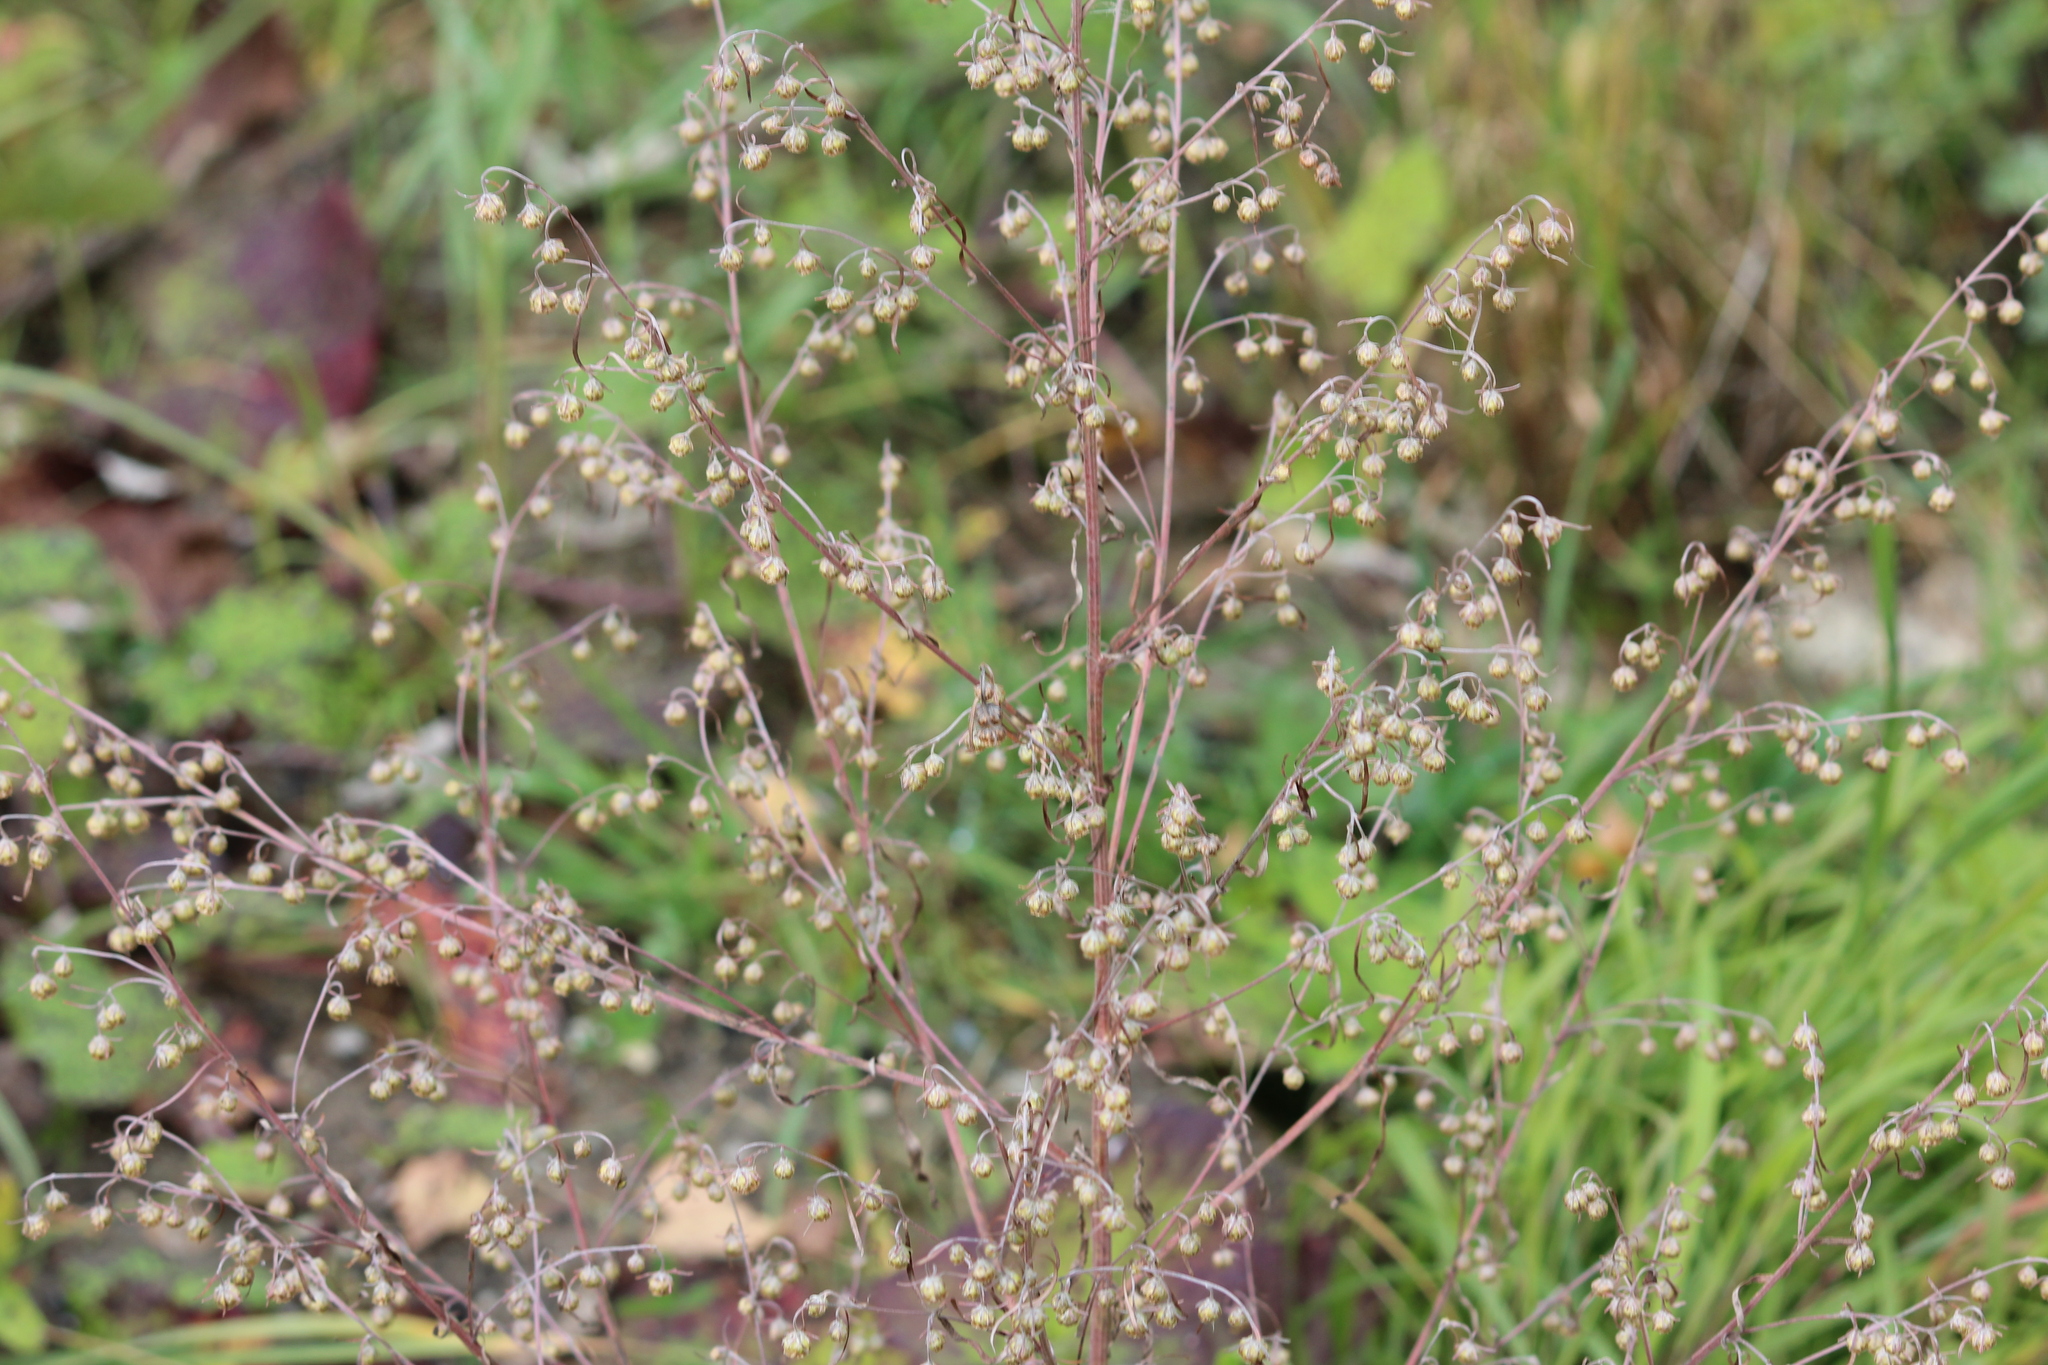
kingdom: Plantae
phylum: Tracheophyta
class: Magnoliopsida
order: Asterales
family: Asteraceae
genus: Artemisia
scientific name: Artemisia sieversiana
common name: Sieversian wormwood
